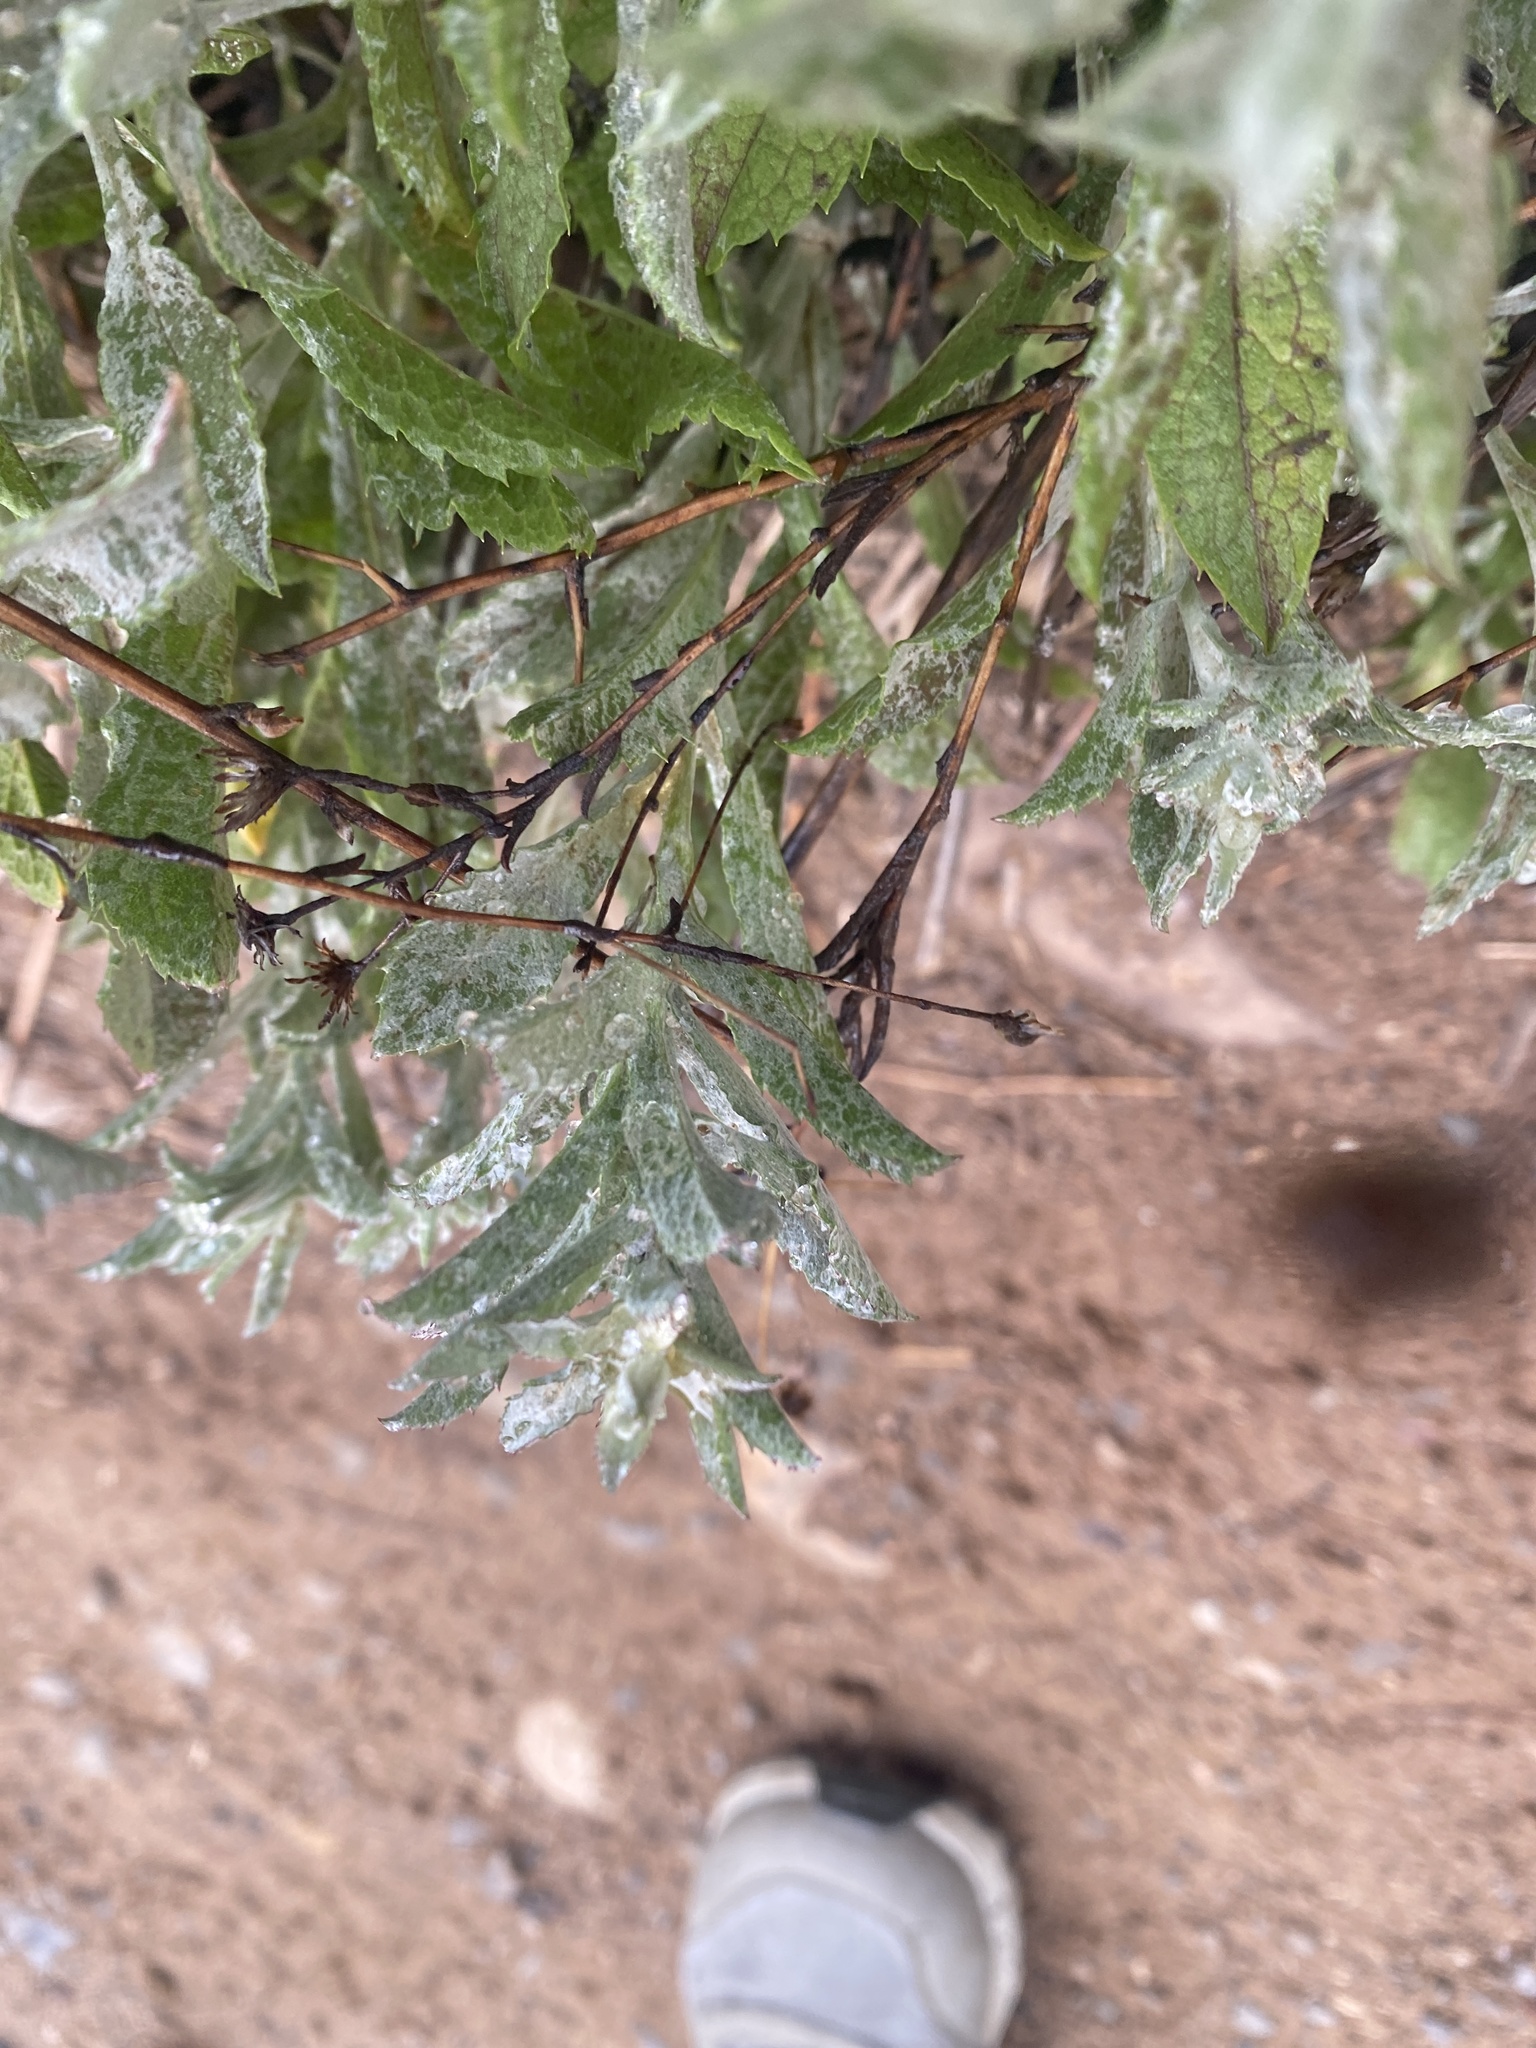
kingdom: Plantae
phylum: Tracheophyta
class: Magnoliopsida
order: Asterales
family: Asteraceae
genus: Corethrogyne
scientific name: Corethrogyne filaginifolia
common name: Sand-aster
